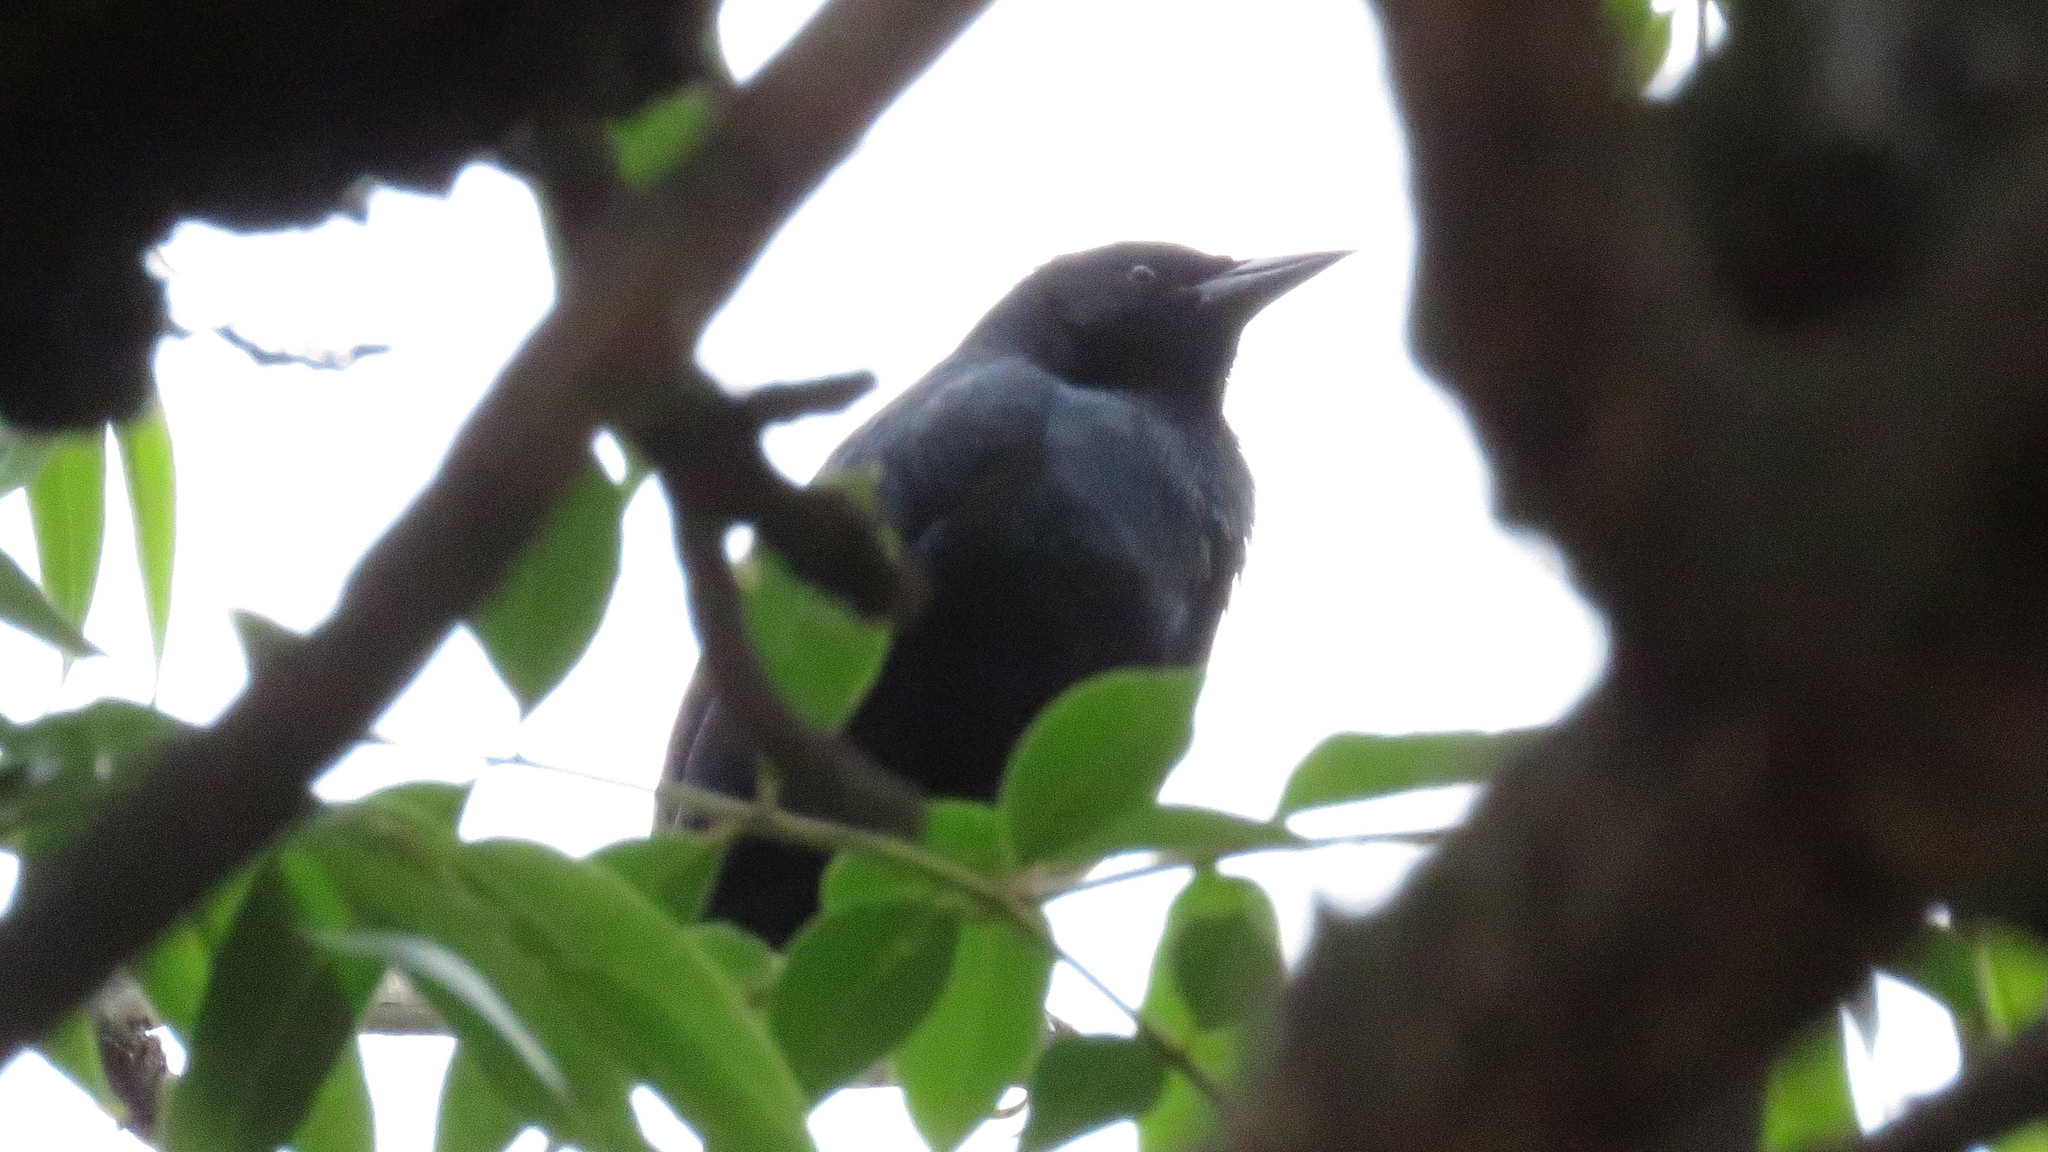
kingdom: Animalia
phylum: Chordata
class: Aves
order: Passeriformes
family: Icteridae
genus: Dives
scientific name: Dives warczewiczi
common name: Scrub blackbird
